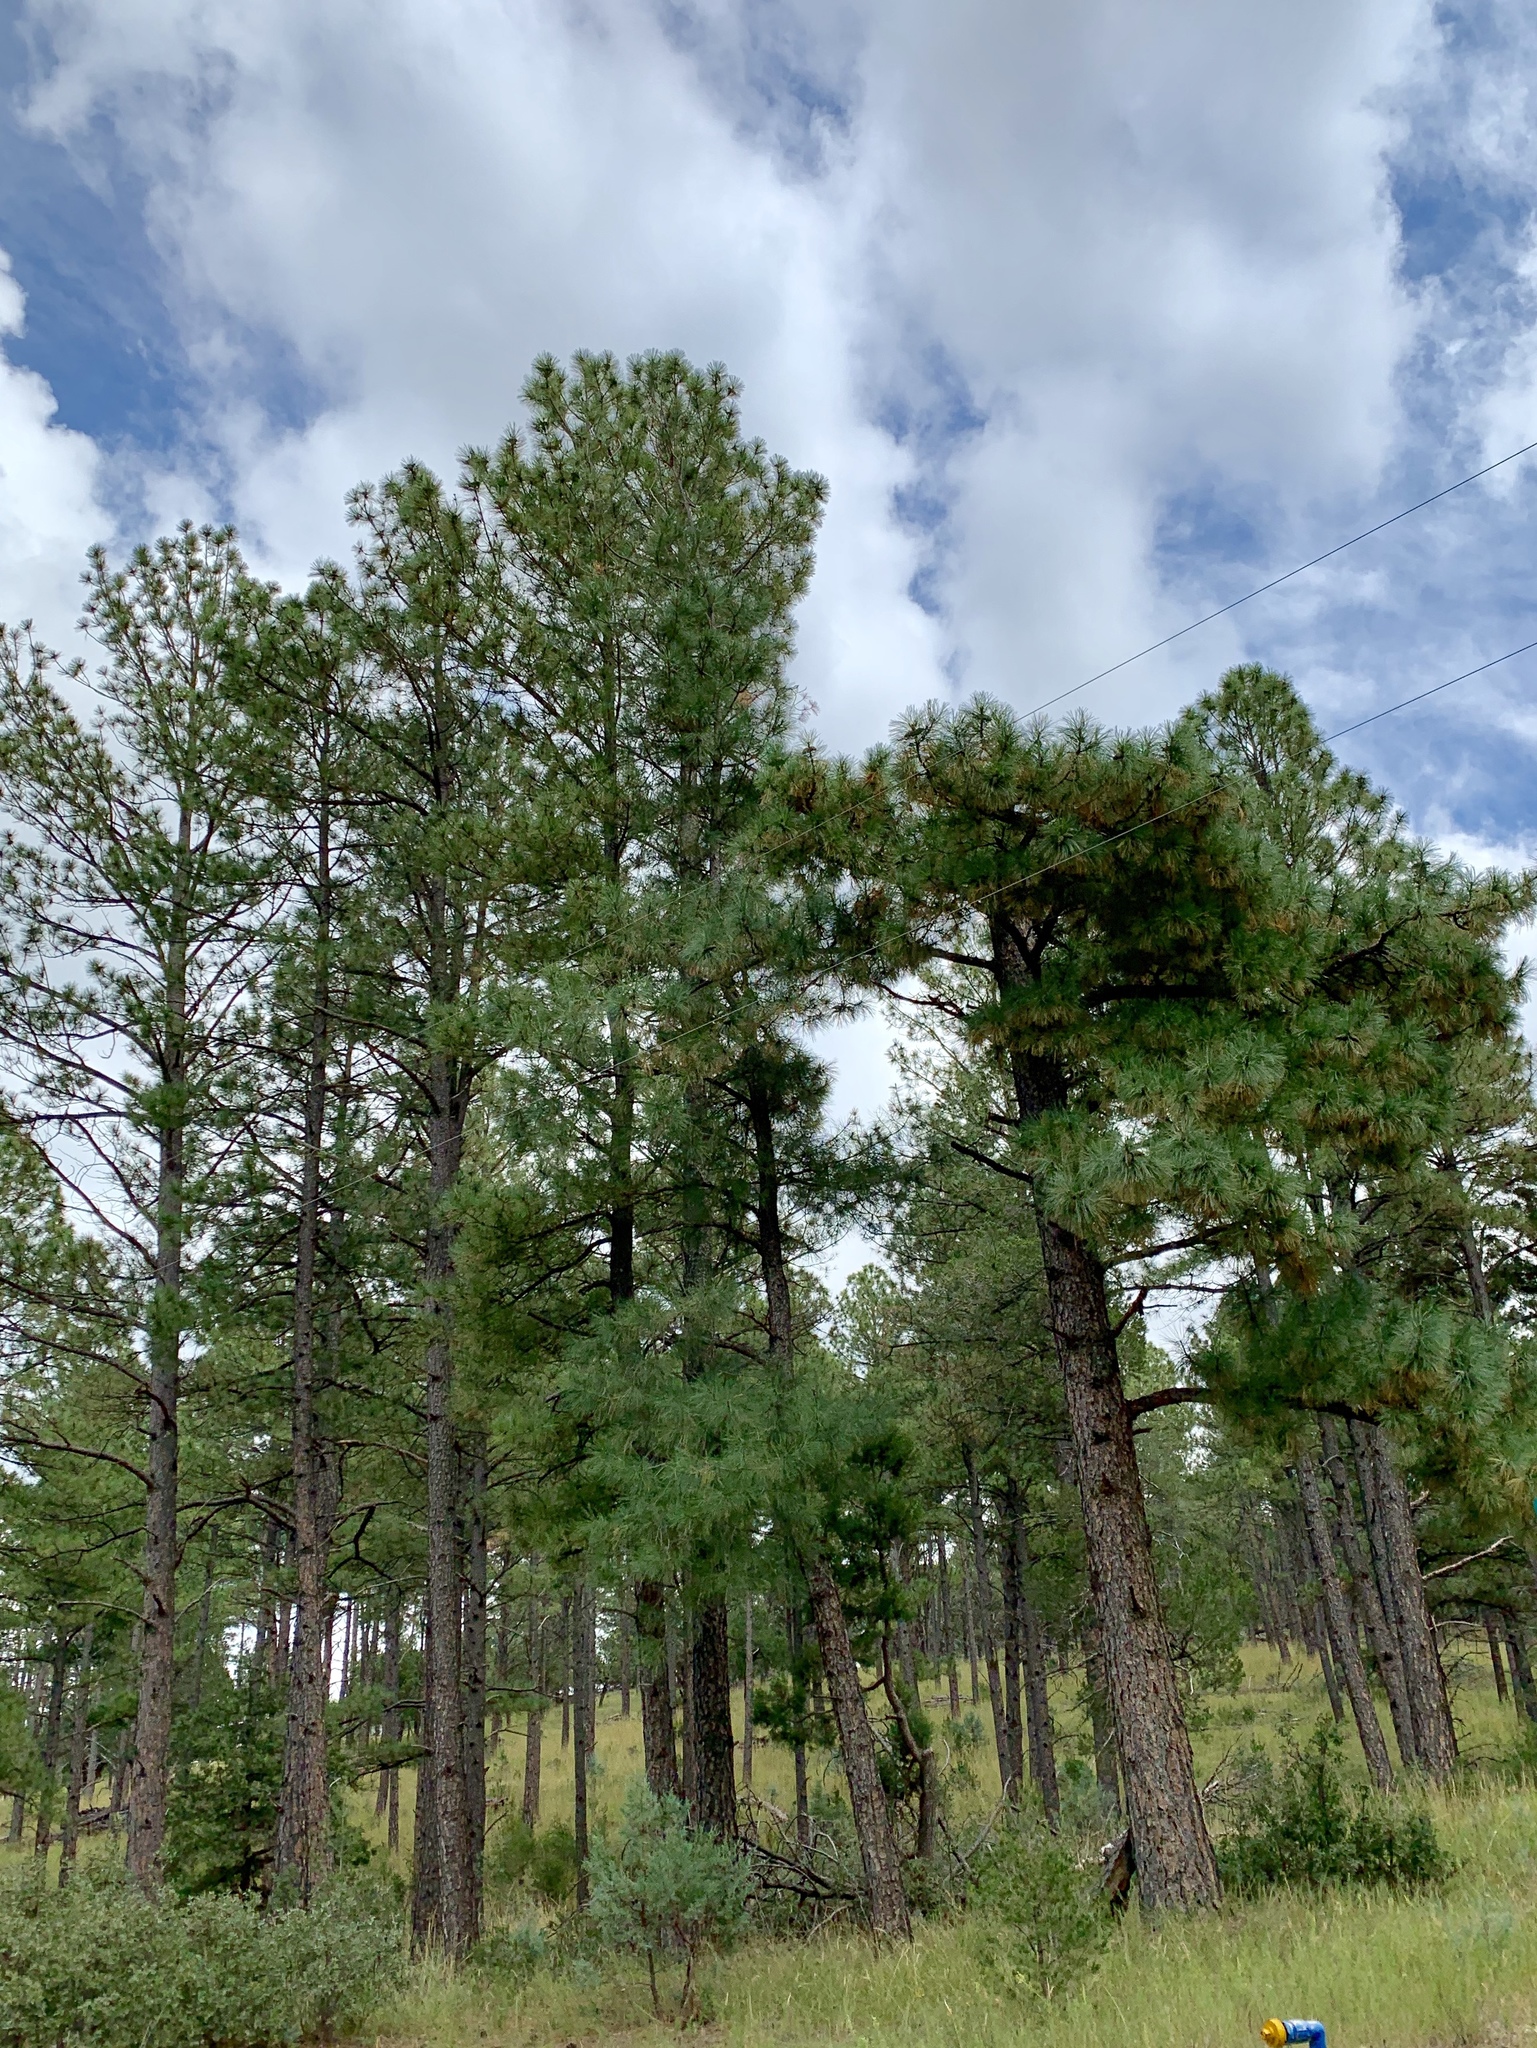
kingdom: Plantae
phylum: Tracheophyta
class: Pinopsida
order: Pinales
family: Pinaceae
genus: Pinus
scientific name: Pinus ponderosa
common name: Western yellow-pine
